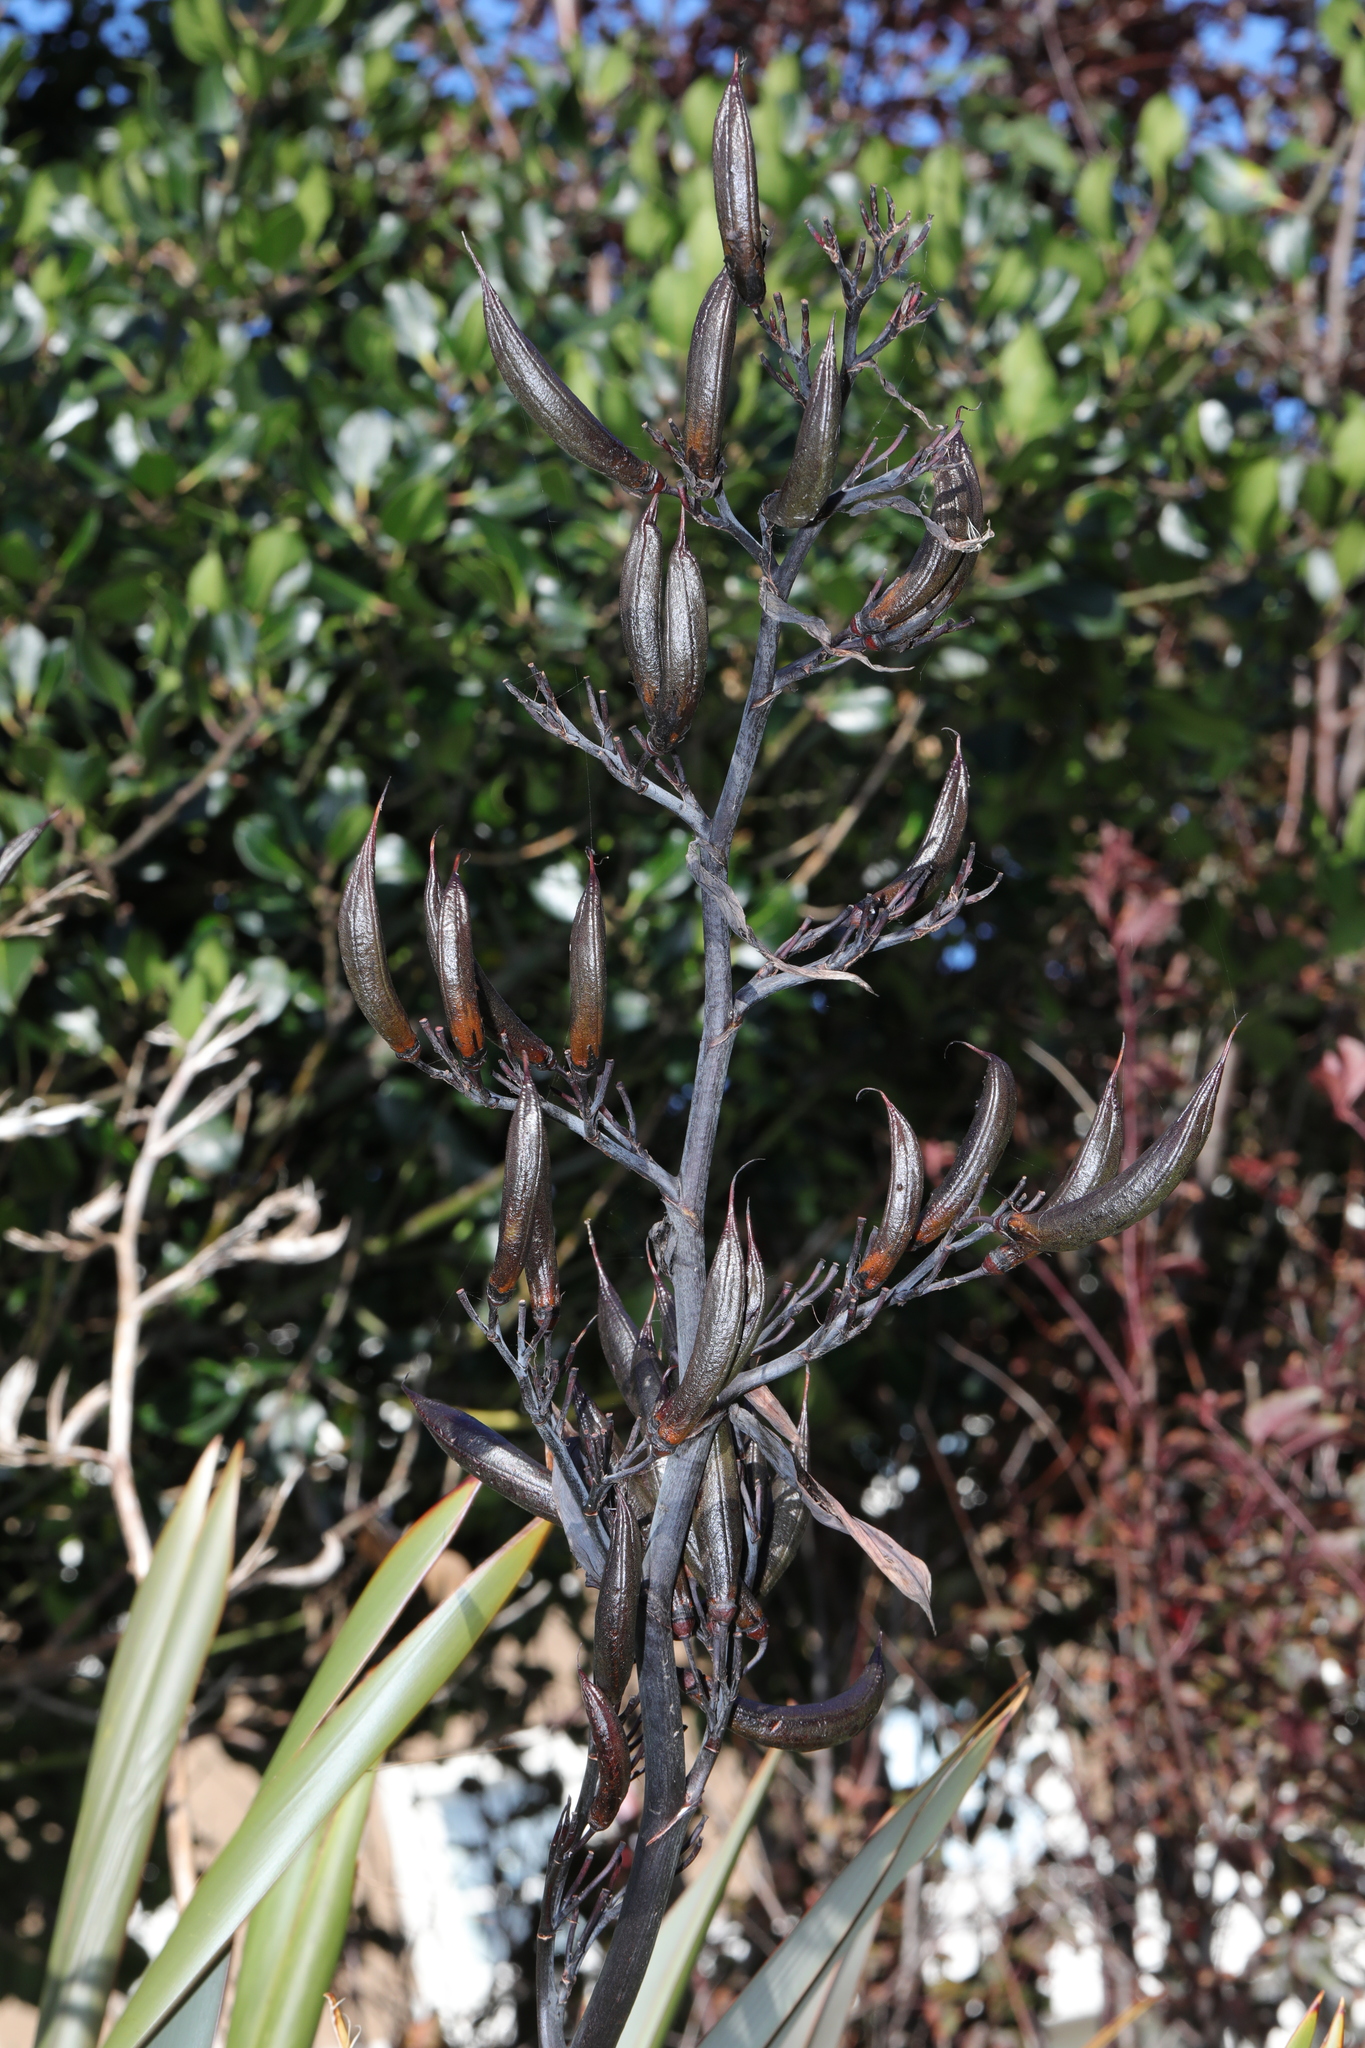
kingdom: Plantae
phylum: Tracheophyta
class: Liliopsida
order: Asparagales
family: Asphodelaceae
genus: Phormium
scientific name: Phormium tenax
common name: New zealand flax
